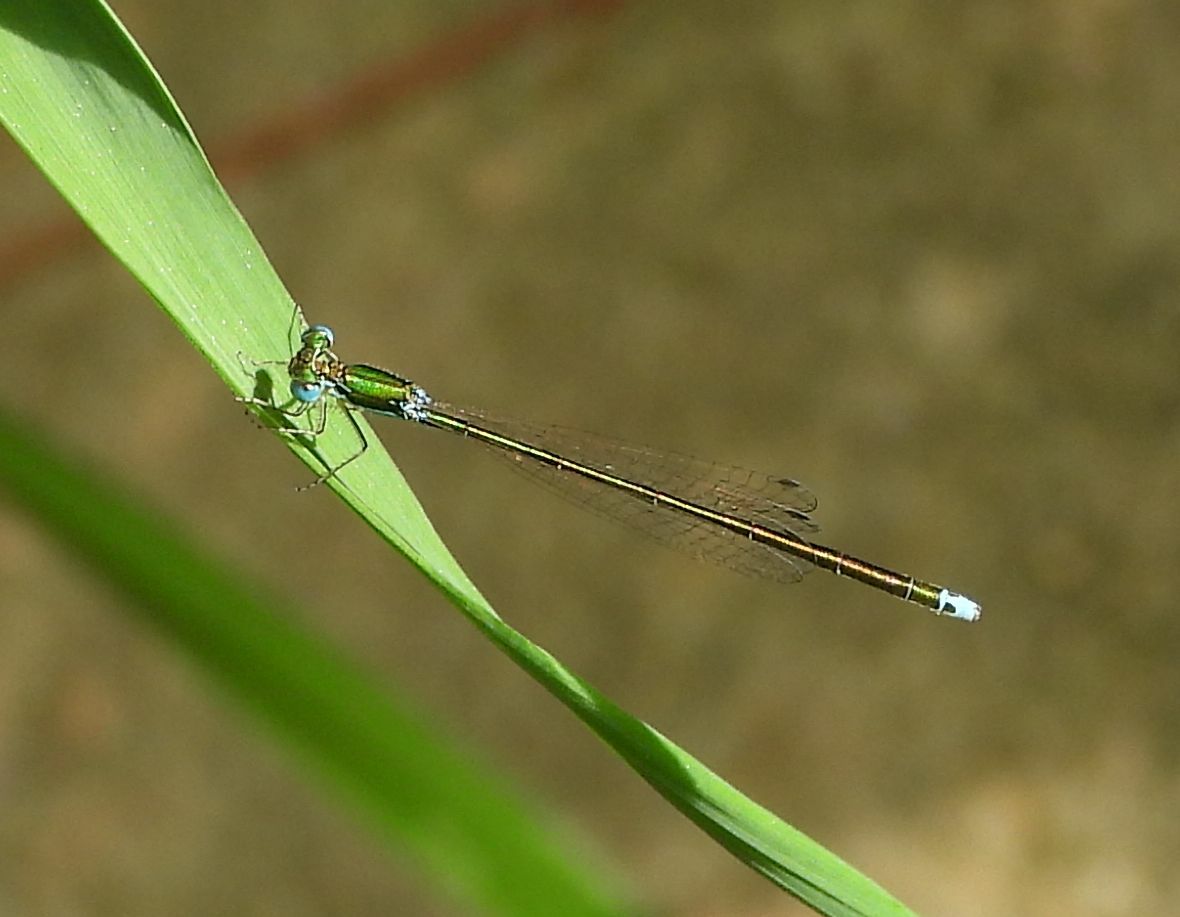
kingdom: Animalia
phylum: Arthropoda
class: Insecta
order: Odonata
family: Coenagrionidae
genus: Nehalennia
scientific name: Nehalennia irene
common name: Sedge sprite
